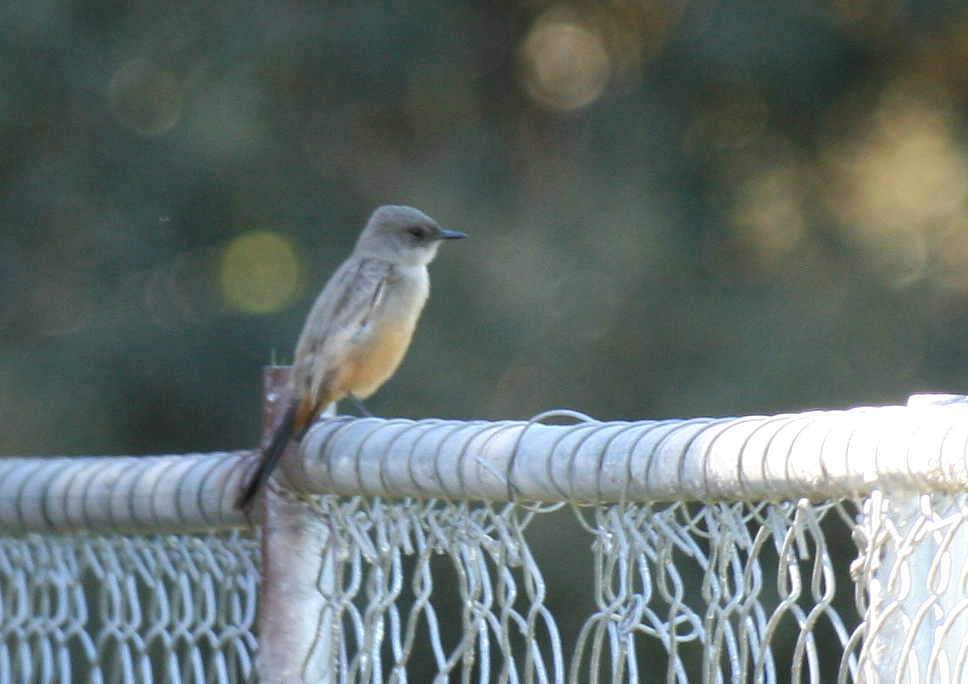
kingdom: Animalia
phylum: Chordata
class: Aves
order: Passeriformes
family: Tyrannidae
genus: Sayornis
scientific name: Sayornis saya
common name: Say's phoebe
